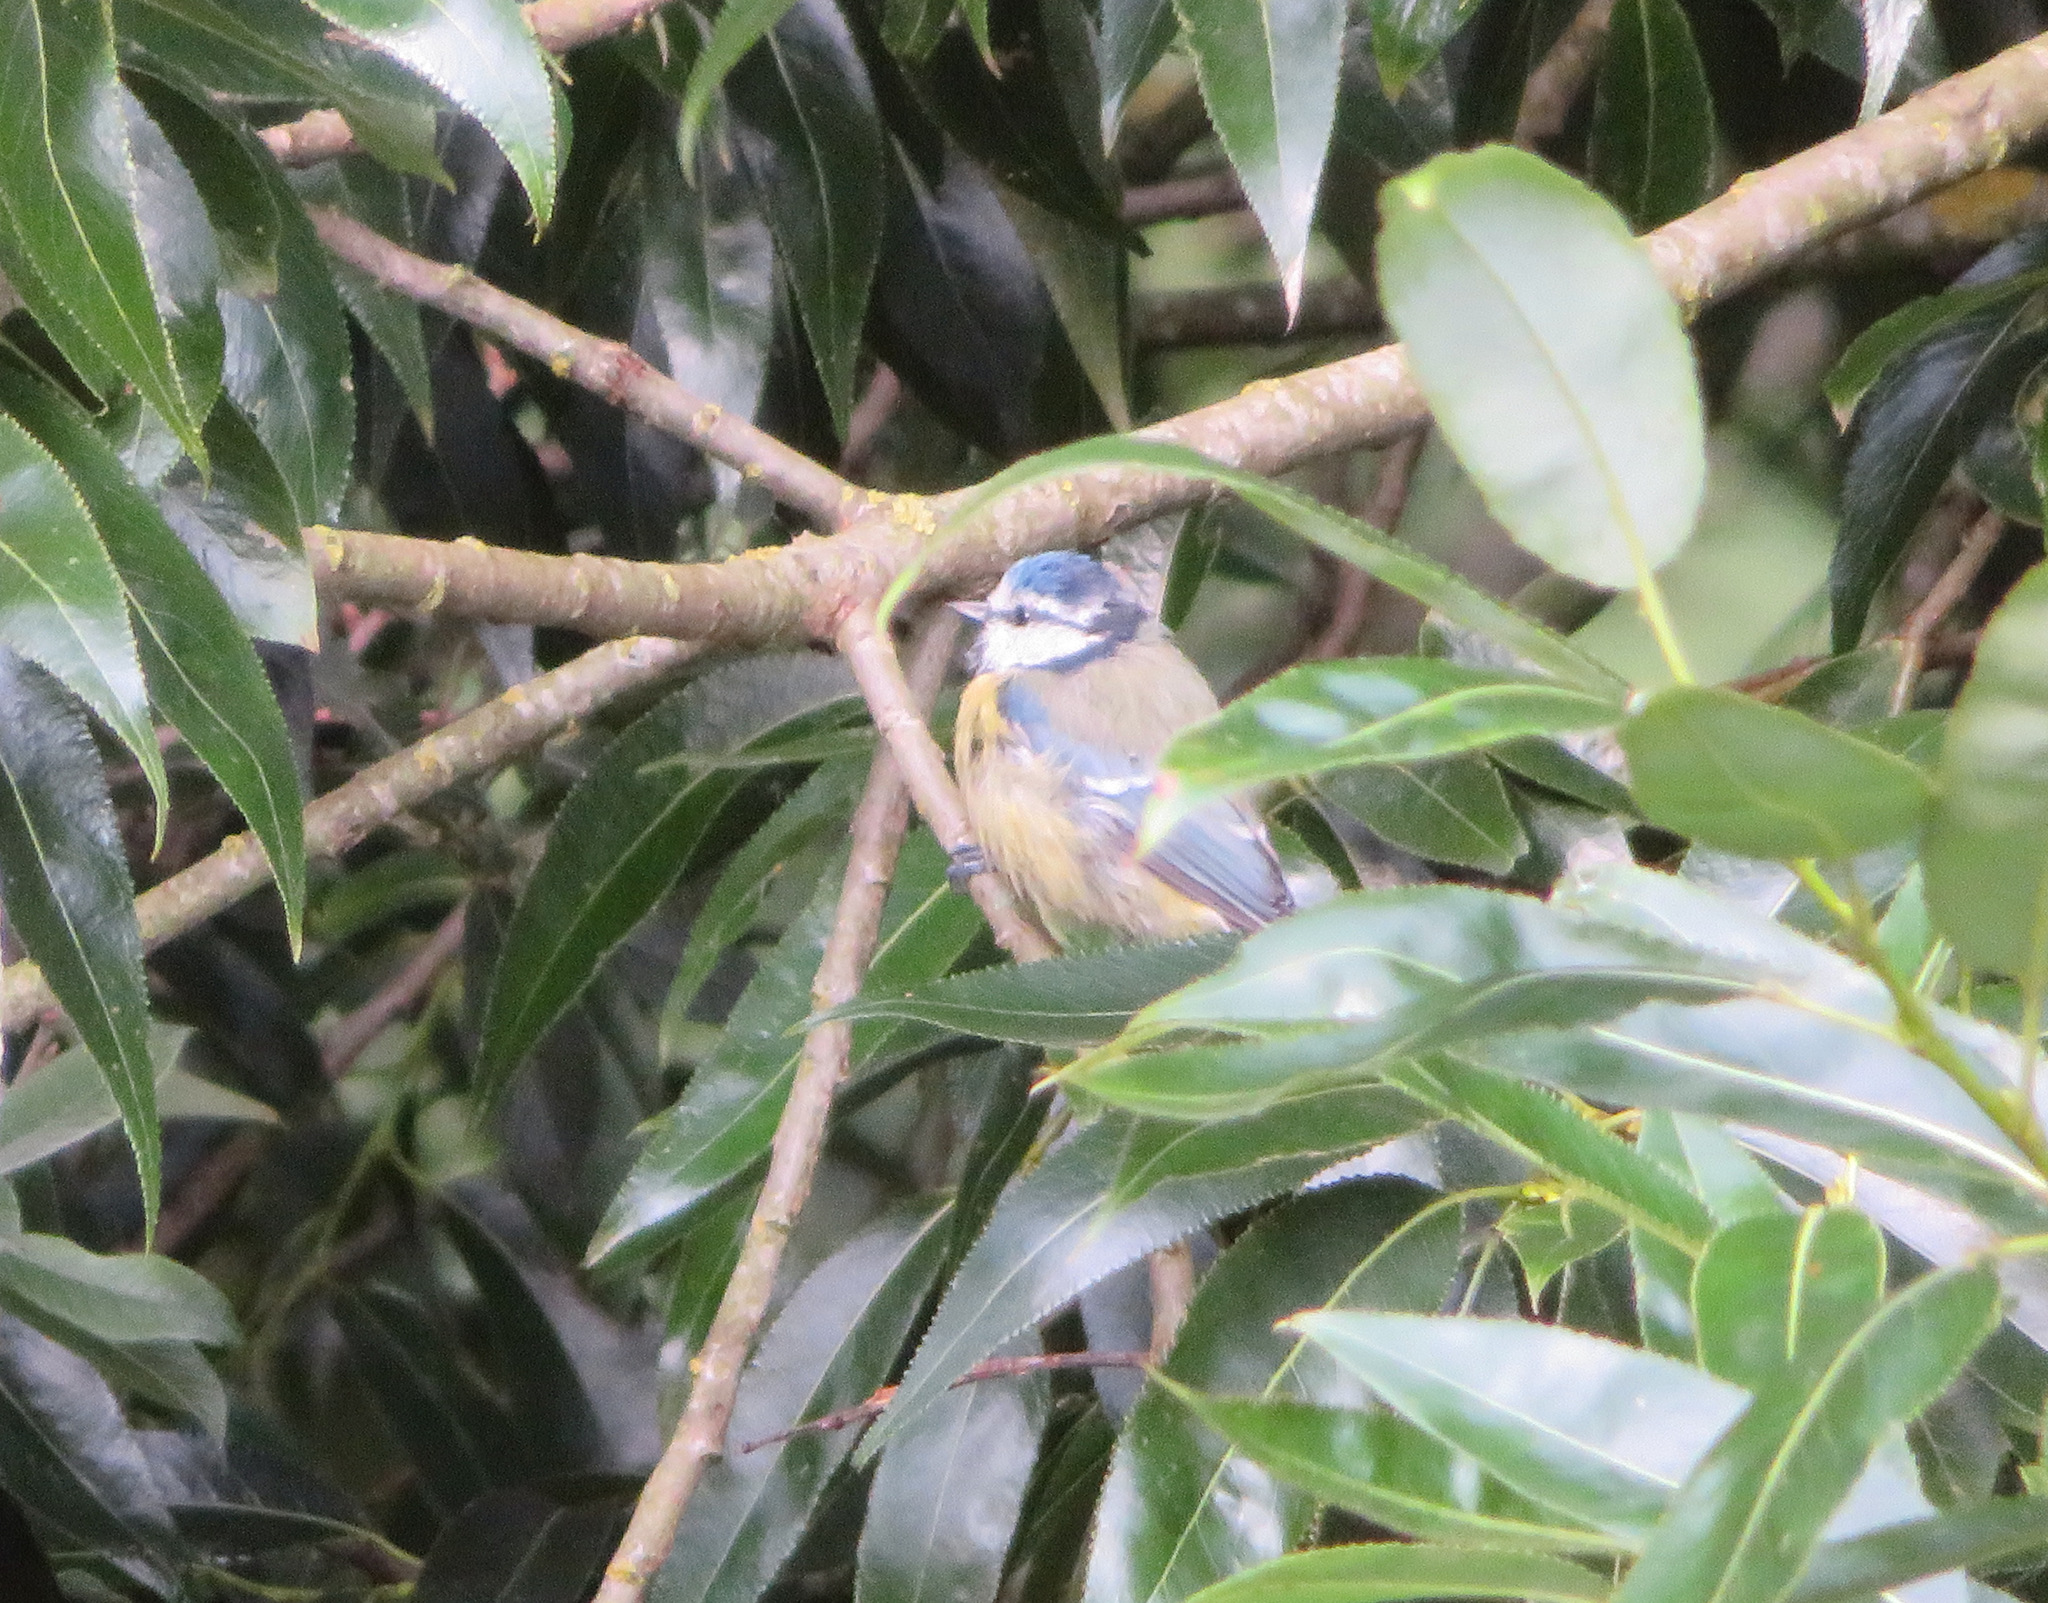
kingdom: Animalia
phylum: Chordata
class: Aves
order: Passeriformes
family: Paridae
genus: Cyanistes
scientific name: Cyanistes caeruleus
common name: Eurasian blue tit
